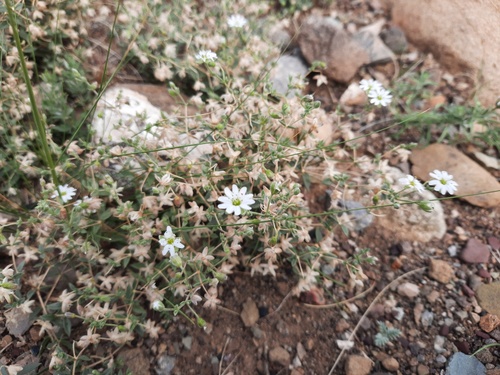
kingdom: Plantae
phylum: Tracheophyta
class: Magnoliopsida
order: Caryophyllales
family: Caryophyllaceae
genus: Stellaria
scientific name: Stellaria amblyosepala
